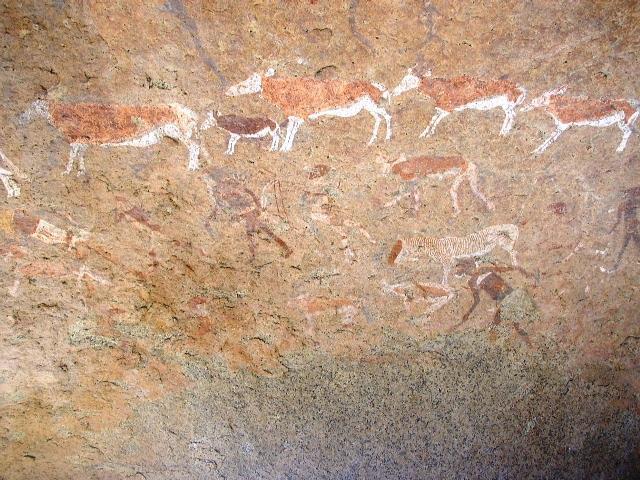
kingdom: Animalia
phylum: Chordata
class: Mammalia
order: Artiodactyla
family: Bovidae
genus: Taurotragus
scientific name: Taurotragus oryx
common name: Common eland
